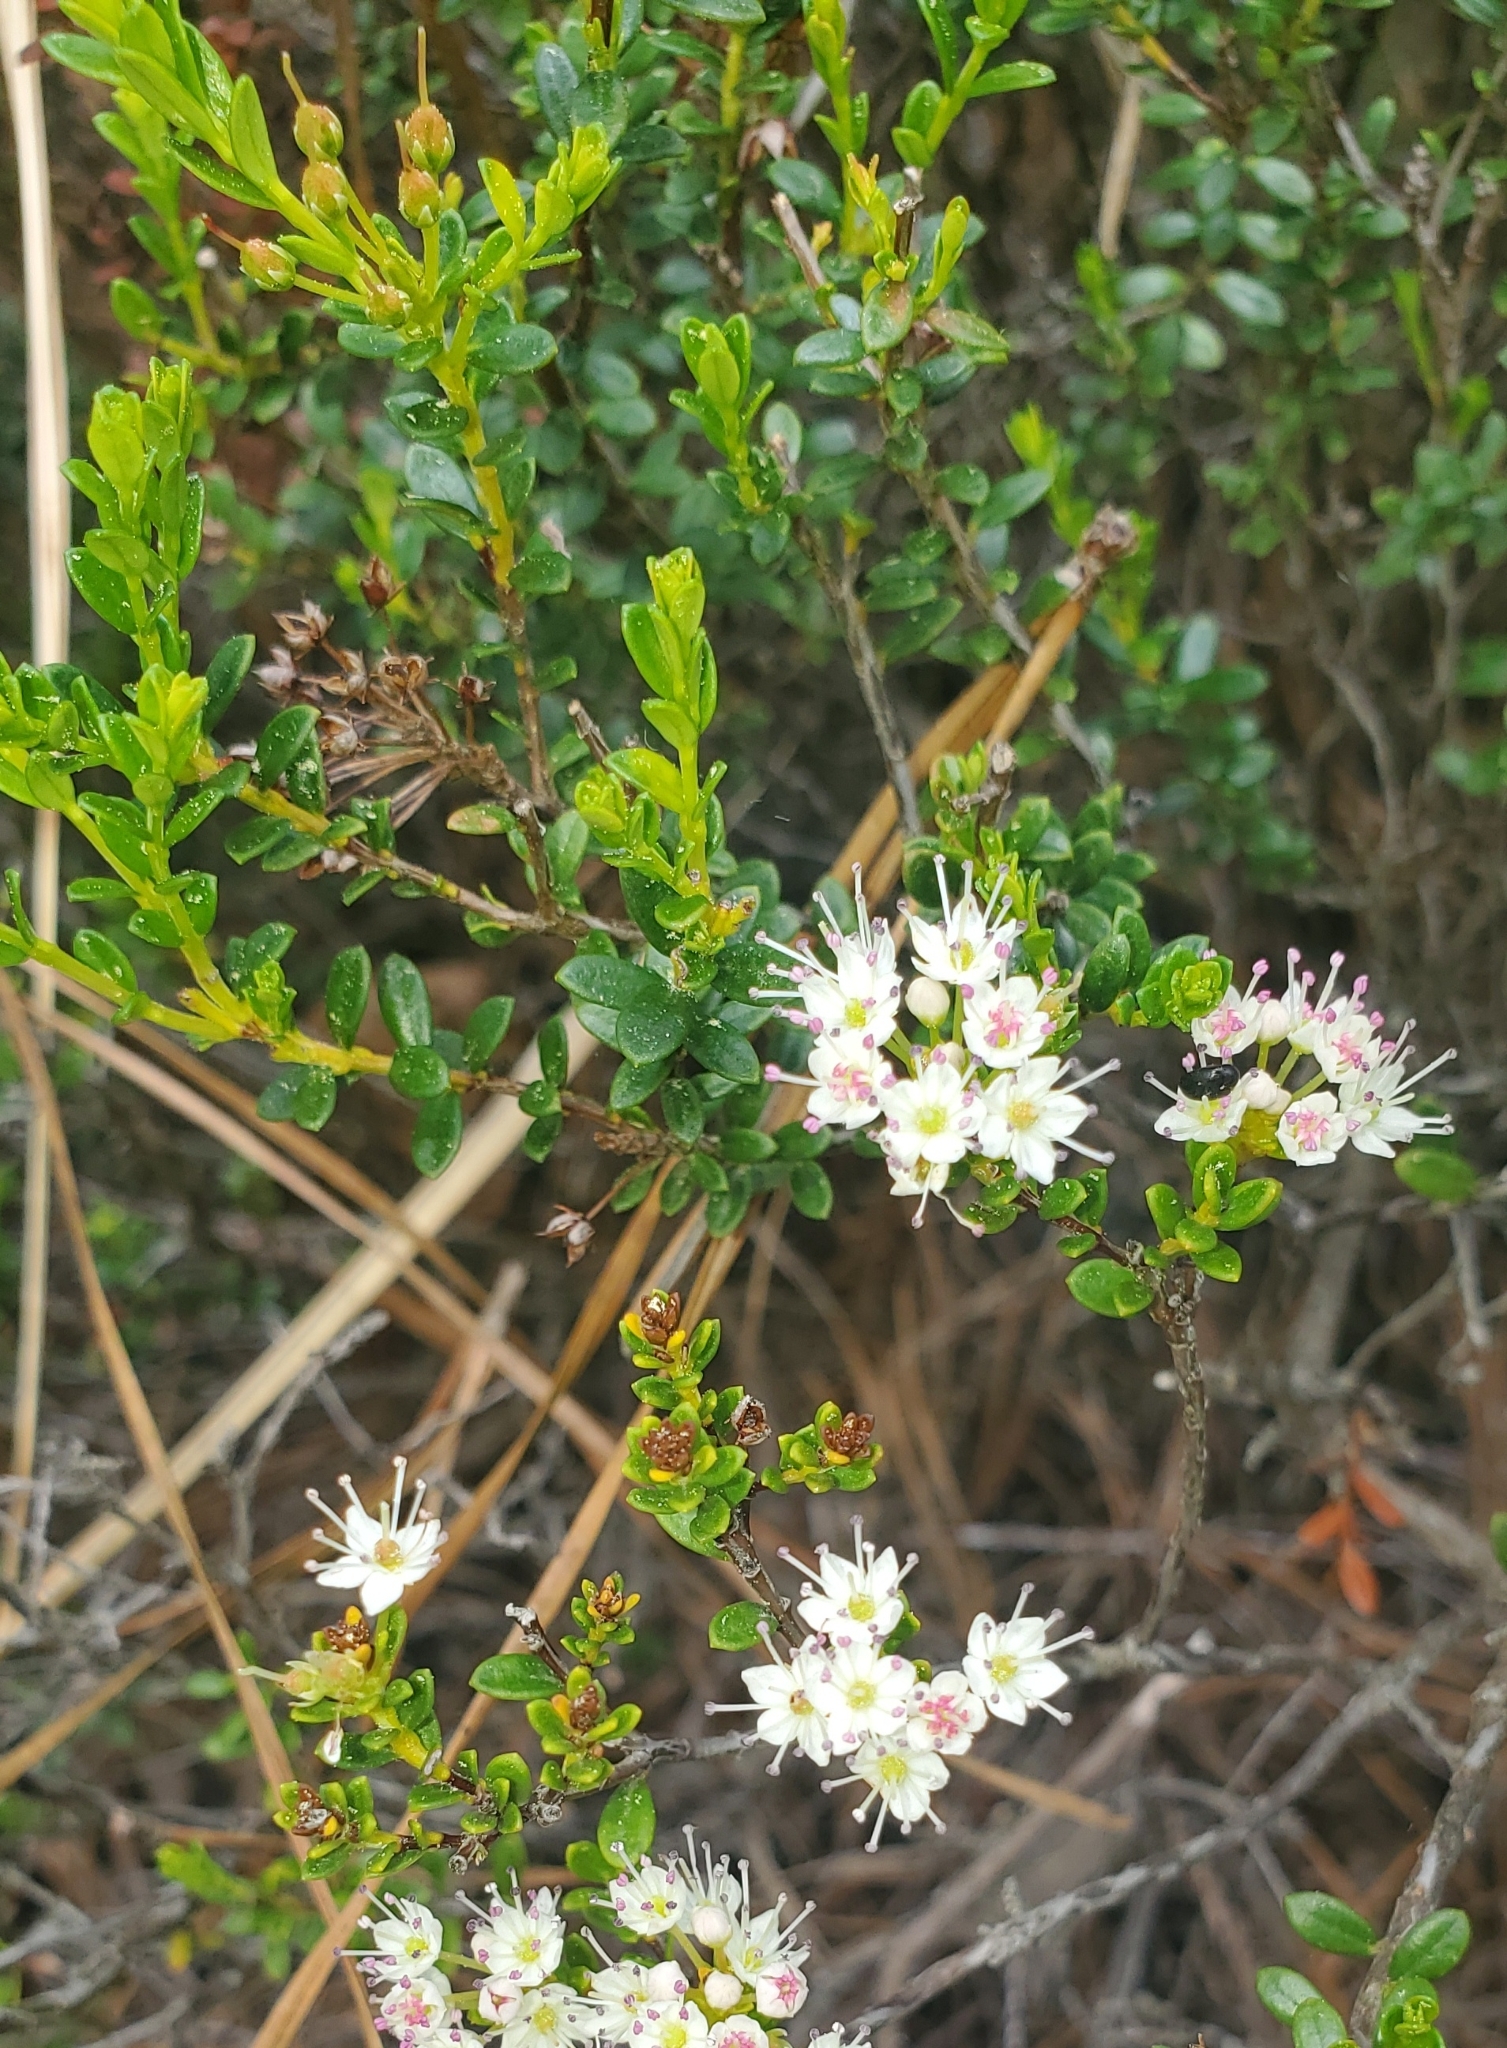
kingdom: Plantae
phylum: Tracheophyta
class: Magnoliopsida
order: Ericales
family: Ericaceae
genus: Kalmia
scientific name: Kalmia buxifolia
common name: Sandmyrtle
